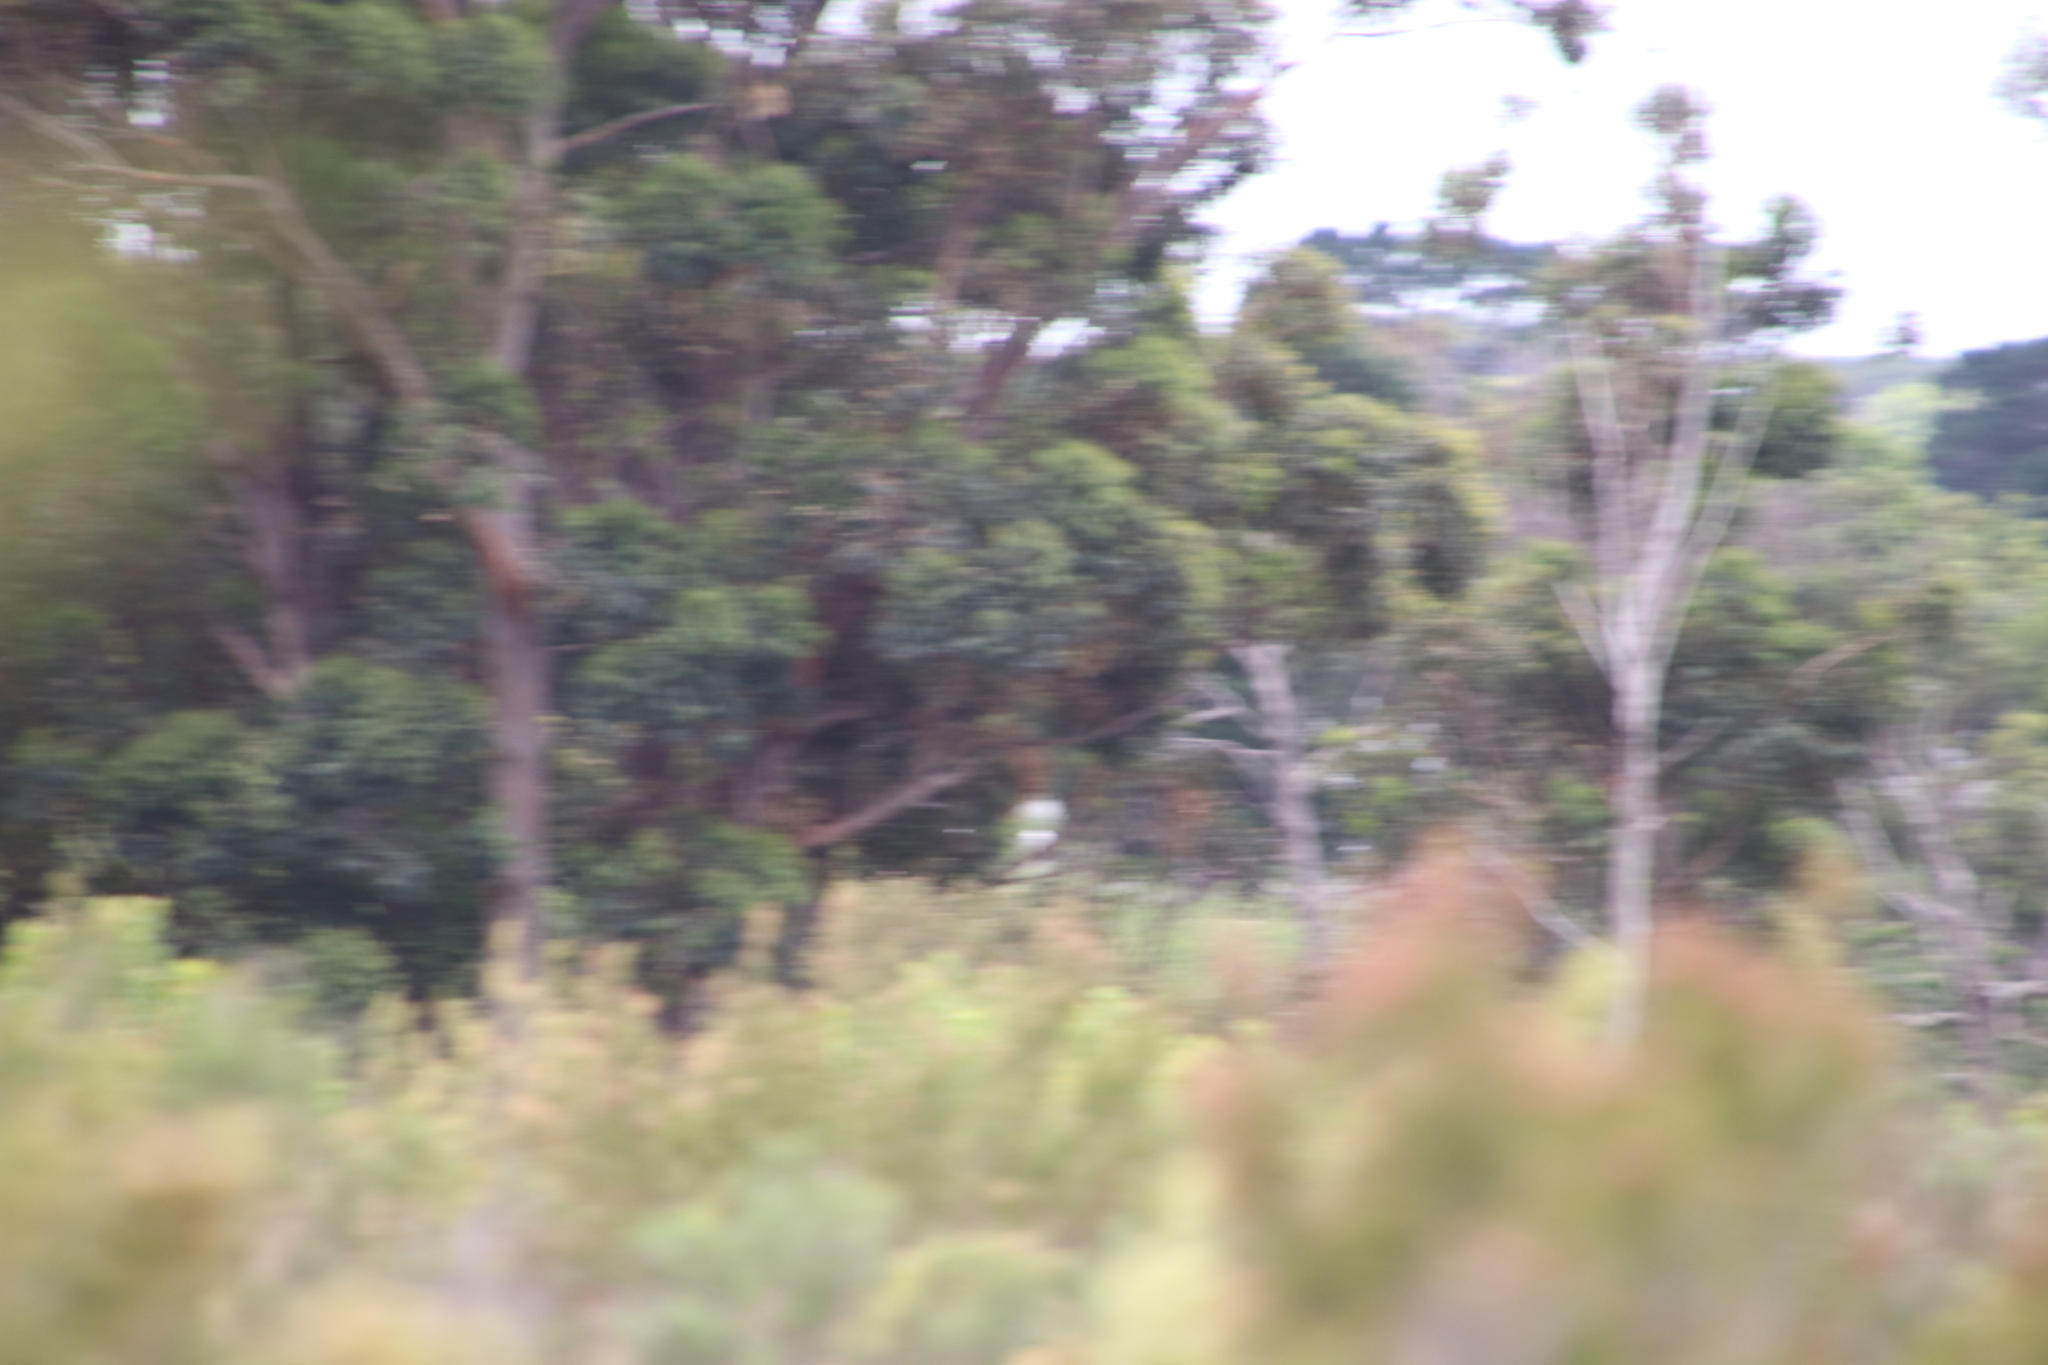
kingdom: Animalia
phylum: Chordata
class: Aves
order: Caprimulgiformes
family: Caprimulgidae
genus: Caprimulgus
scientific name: Caprimulgus pectoralis
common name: Fiery-necked nightjar
